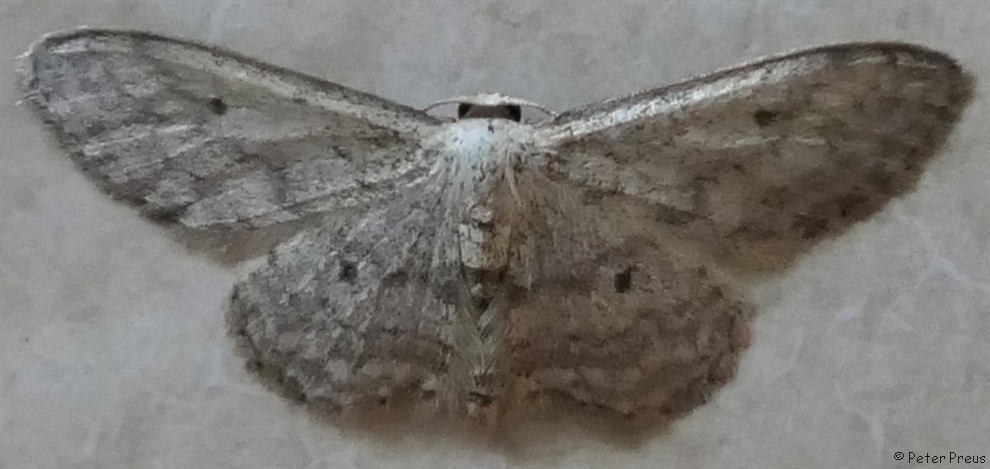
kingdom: Animalia
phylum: Arthropoda
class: Insecta
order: Lepidoptera
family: Geometridae
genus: Idaea
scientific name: Idaea seriata
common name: Small dusty wave
